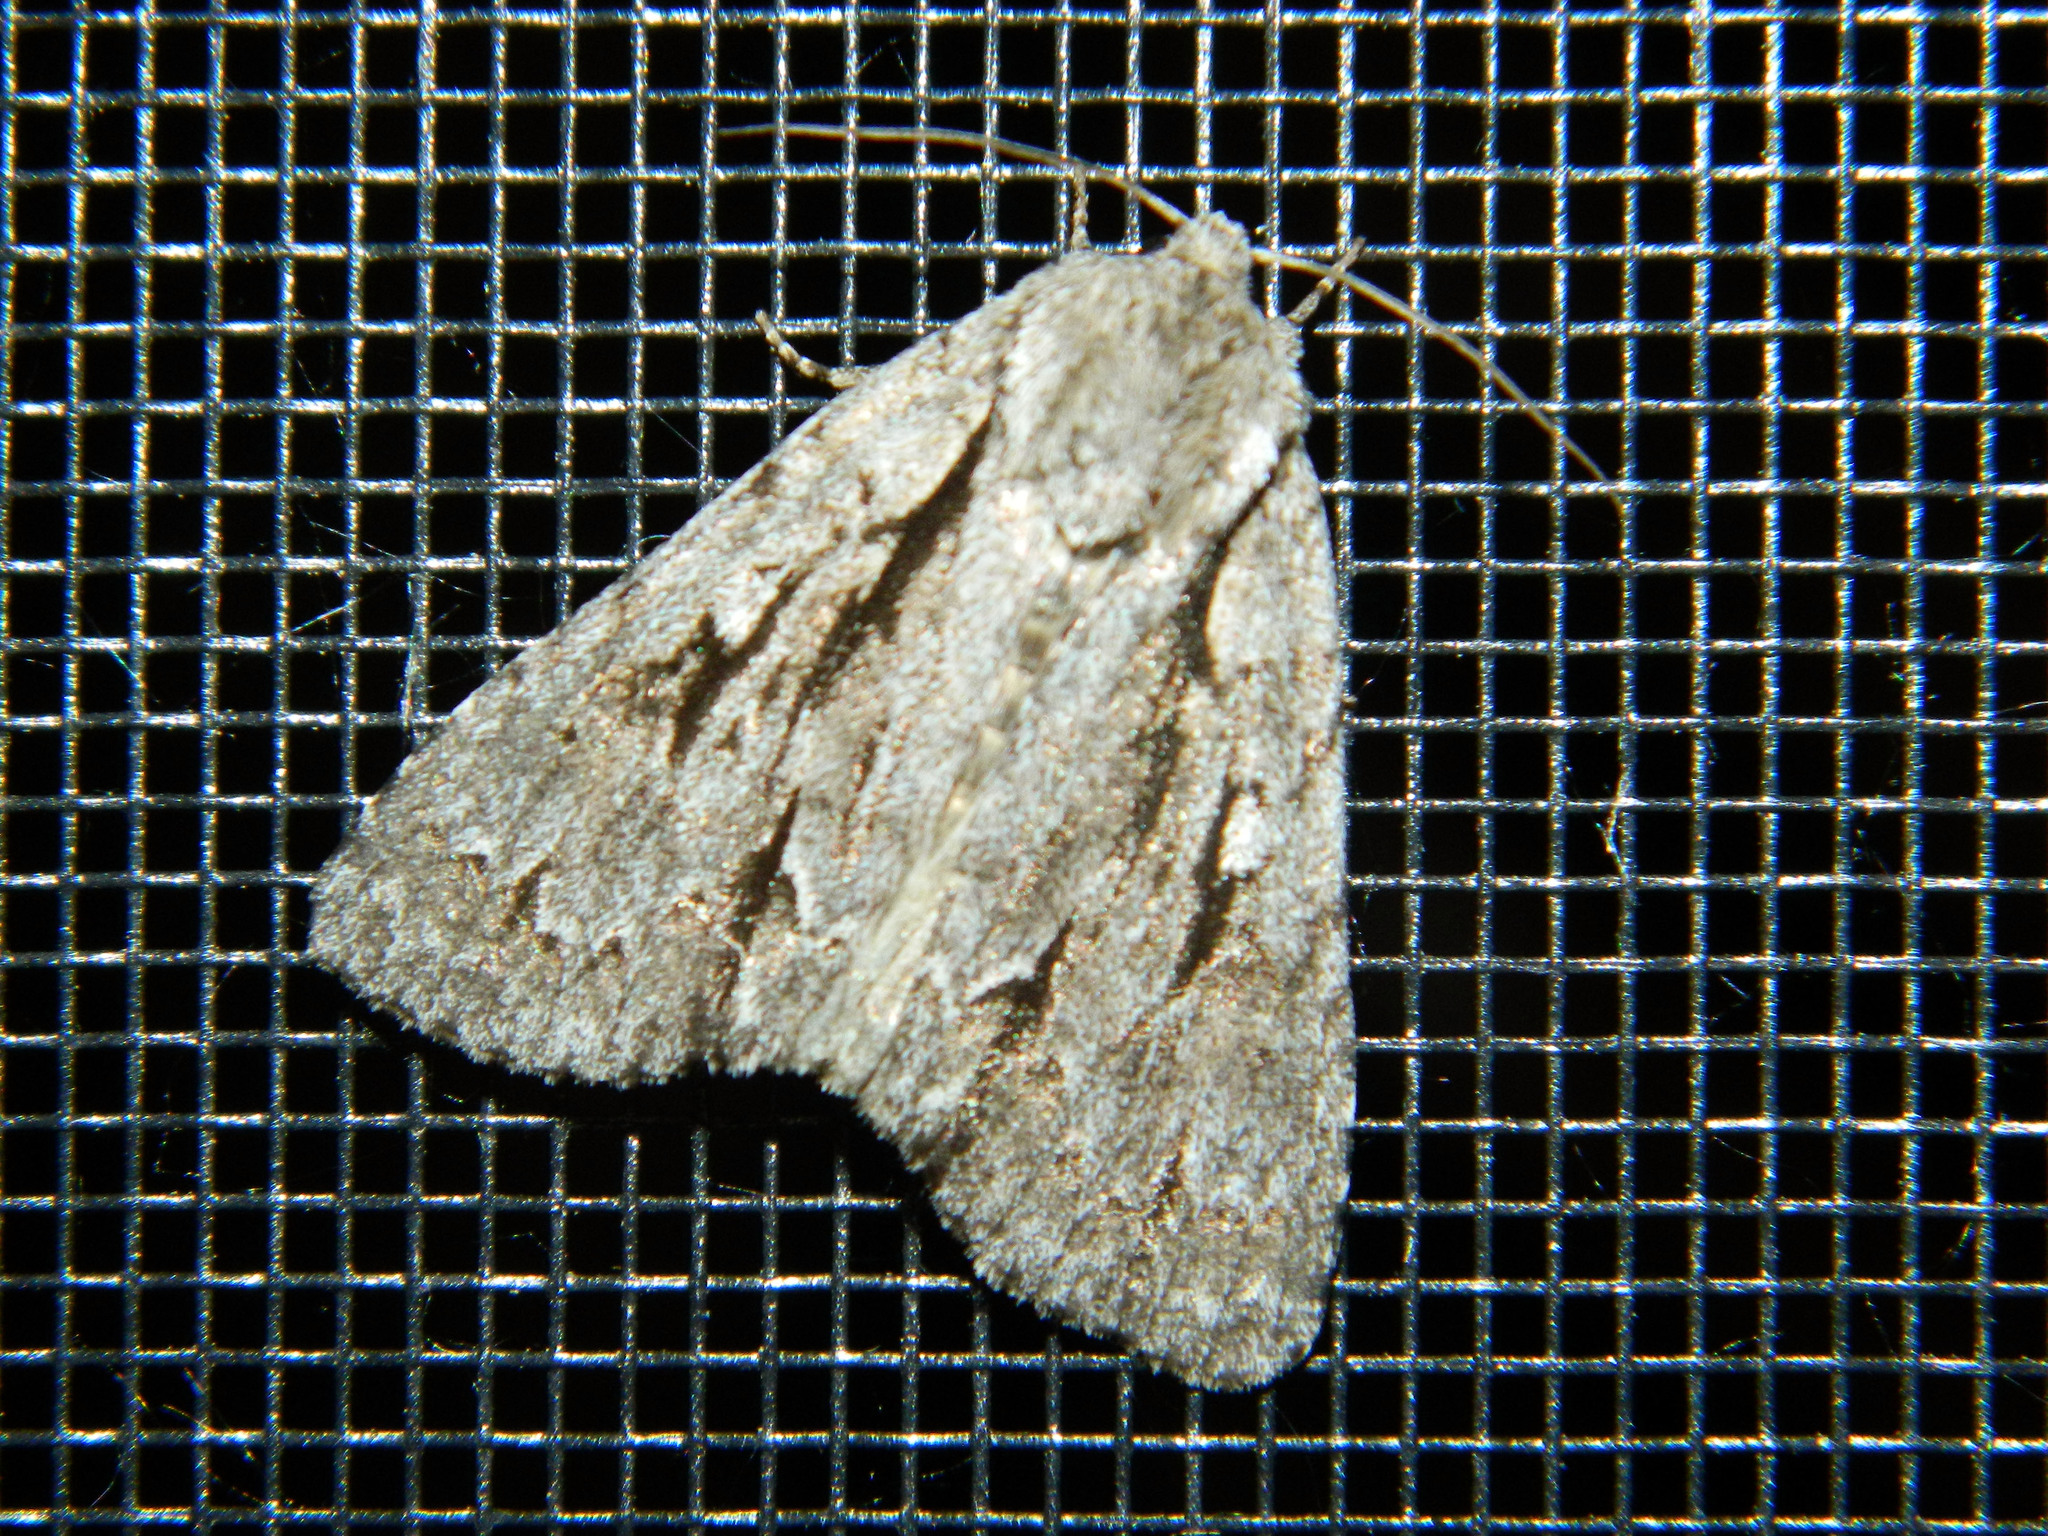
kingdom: Animalia
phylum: Arthropoda
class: Insecta
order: Lepidoptera
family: Noctuidae
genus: Acronicta
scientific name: Acronicta hasta
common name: Cherry dagger
